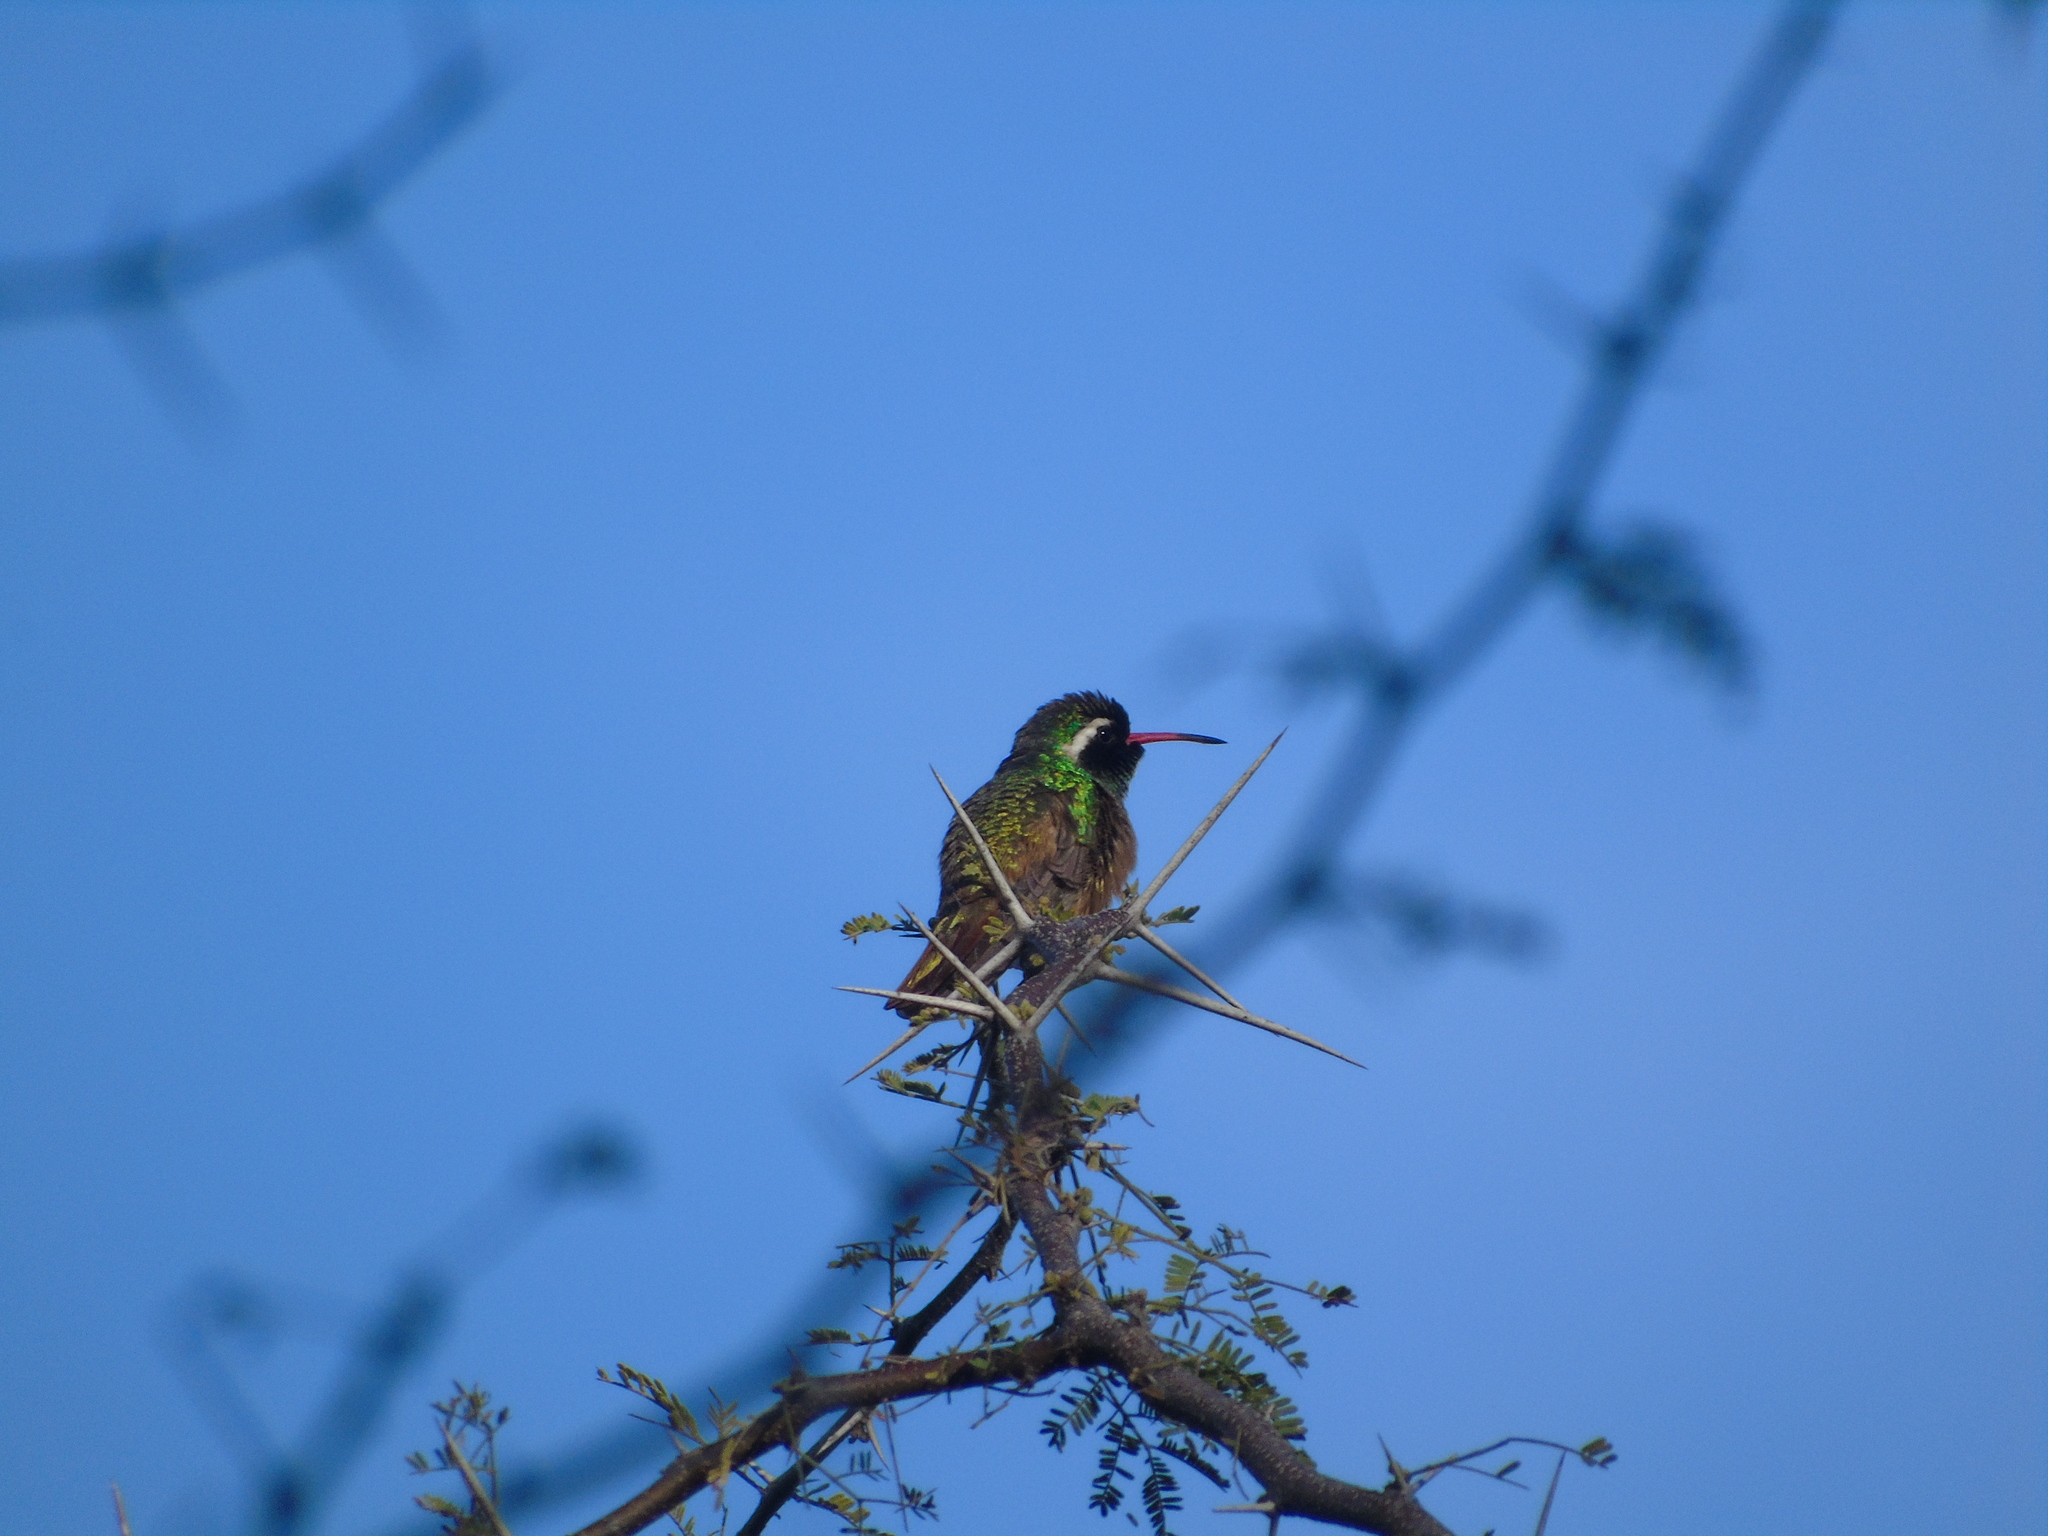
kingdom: Animalia
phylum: Chordata
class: Aves
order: Apodiformes
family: Trochilidae
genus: Basilinna
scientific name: Basilinna xantusii
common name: Xantus's hummingbird
